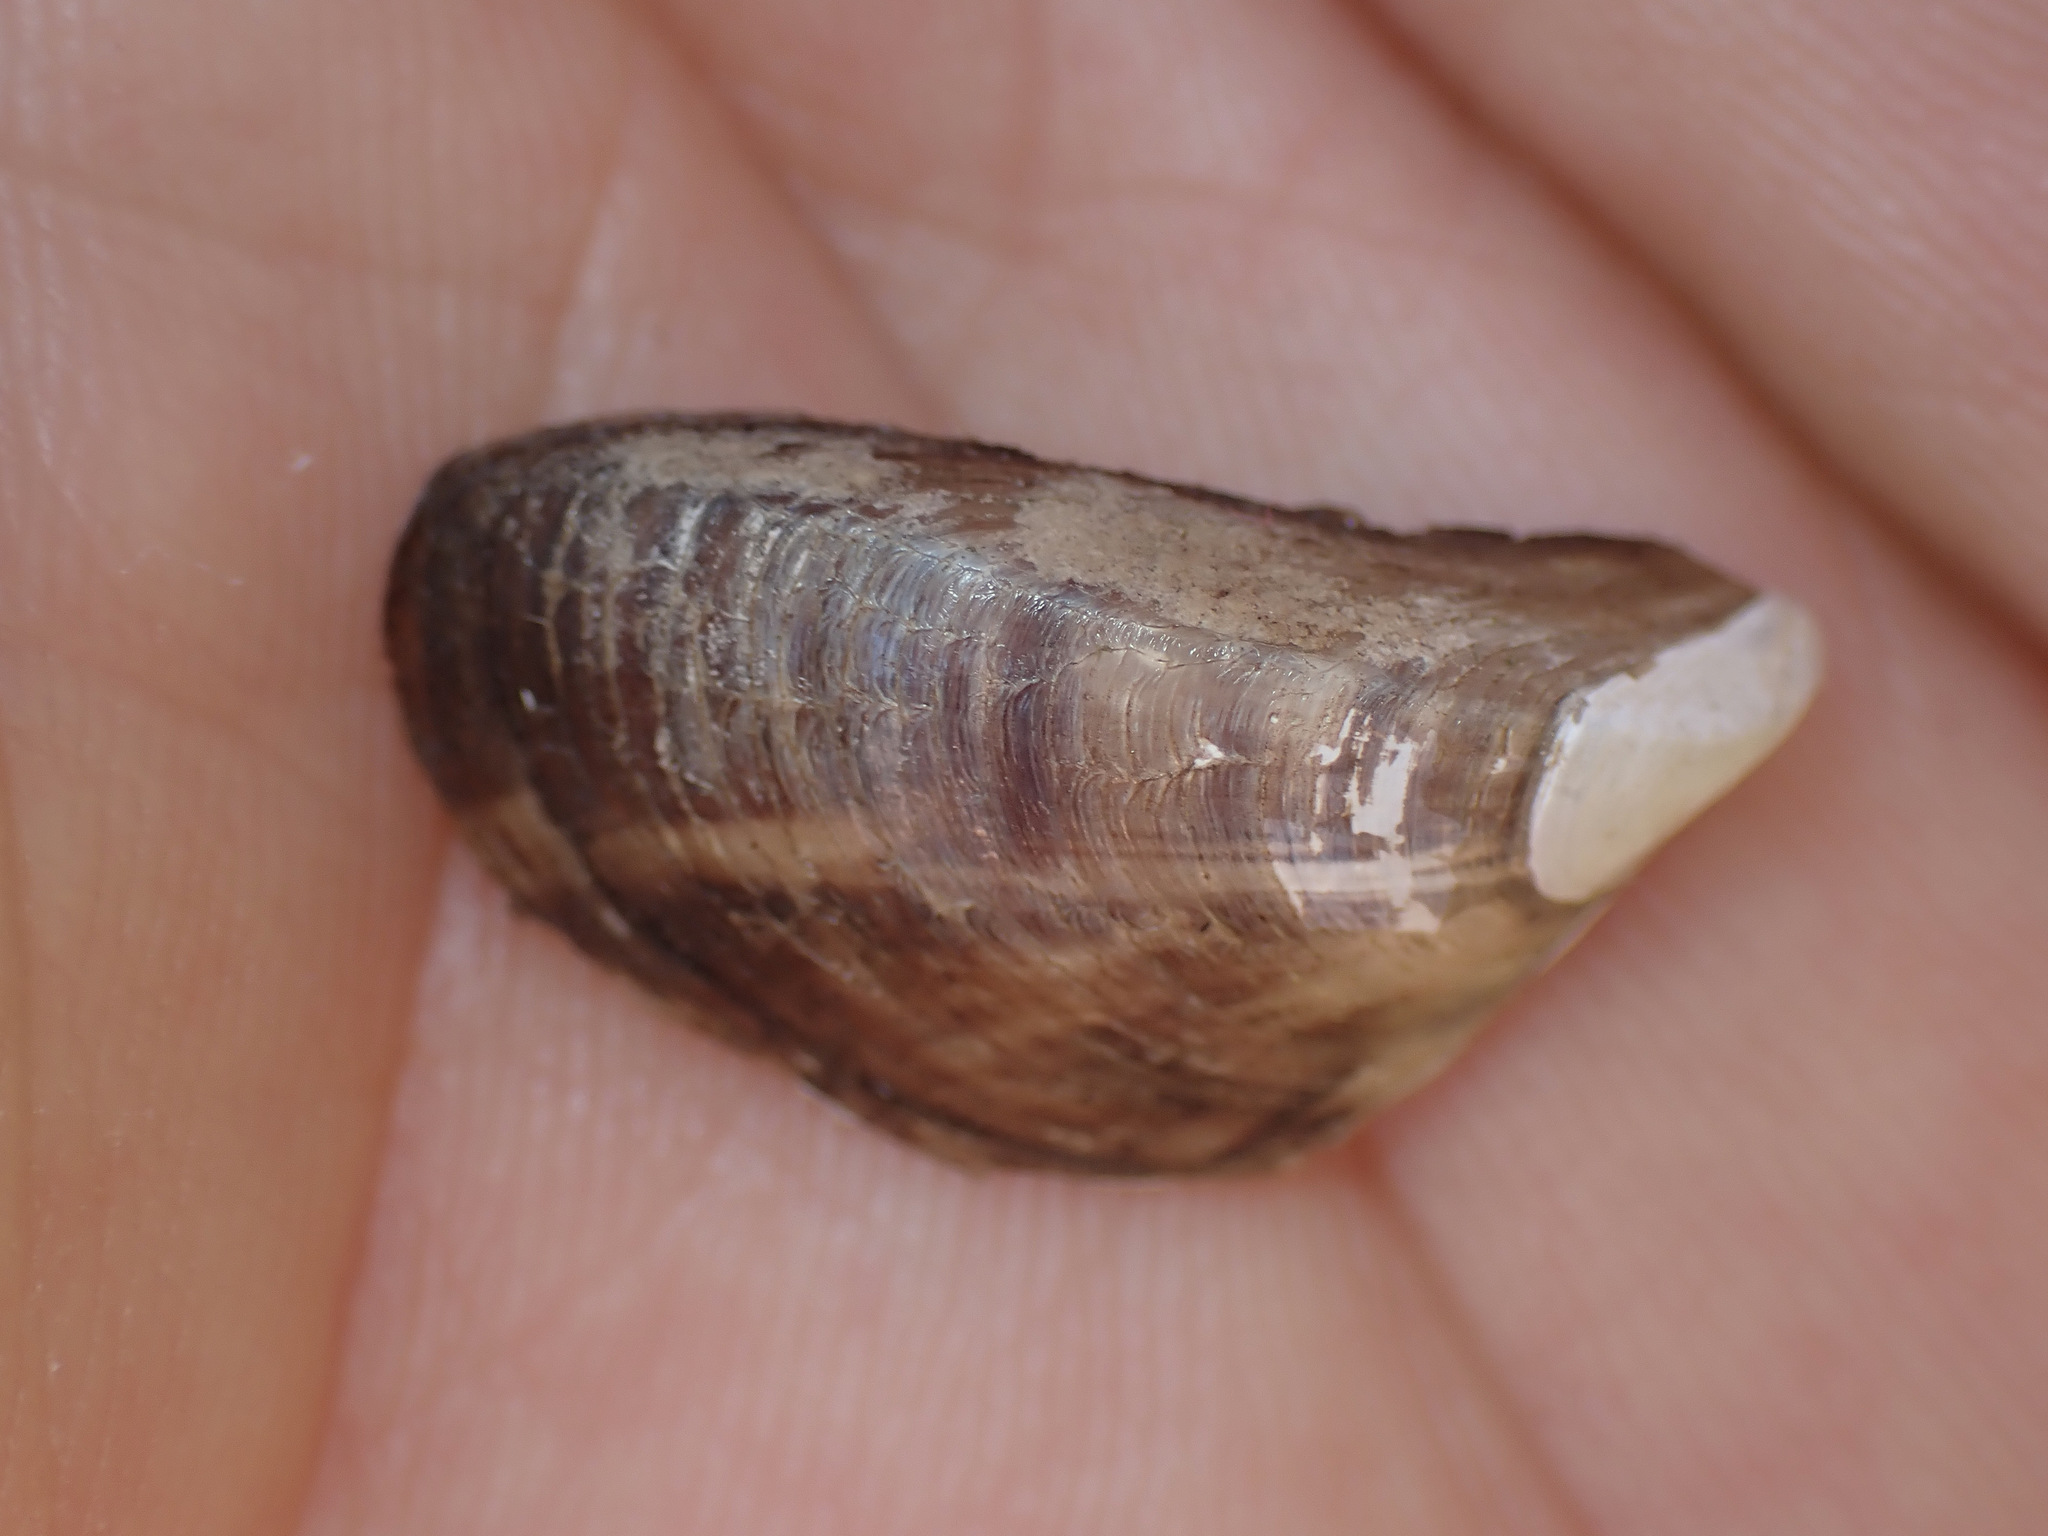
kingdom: Animalia
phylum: Mollusca
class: Bivalvia
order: Myida
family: Dreissenidae
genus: Dreissena
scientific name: Dreissena polymorpha
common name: Zebra mussel
